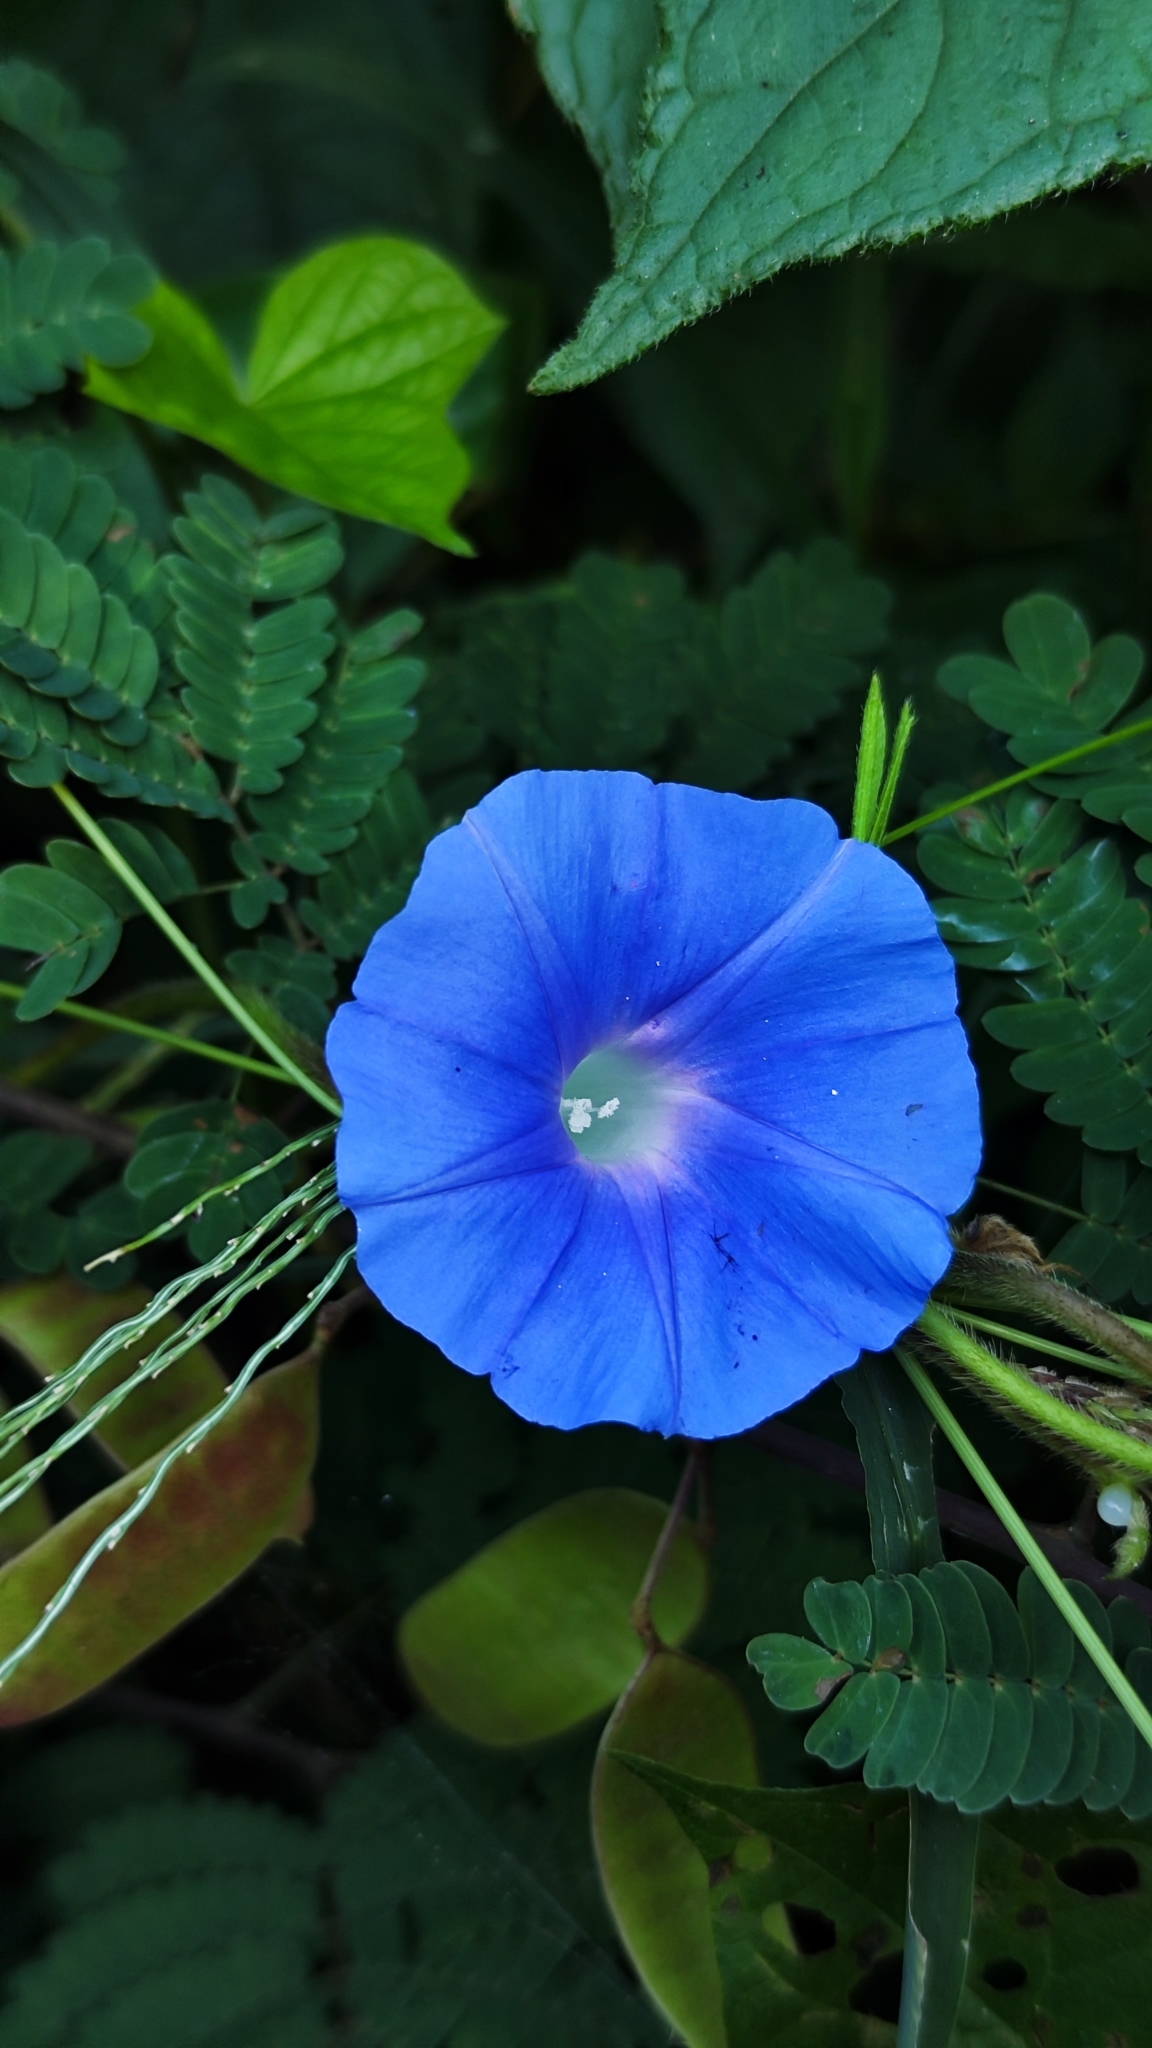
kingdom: Plantae
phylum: Tracheophyta
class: Magnoliopsida
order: Solanales
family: Convolvulaceae
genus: Ipomoea
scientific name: Ipomoea nil
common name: Japanese morning-glory
